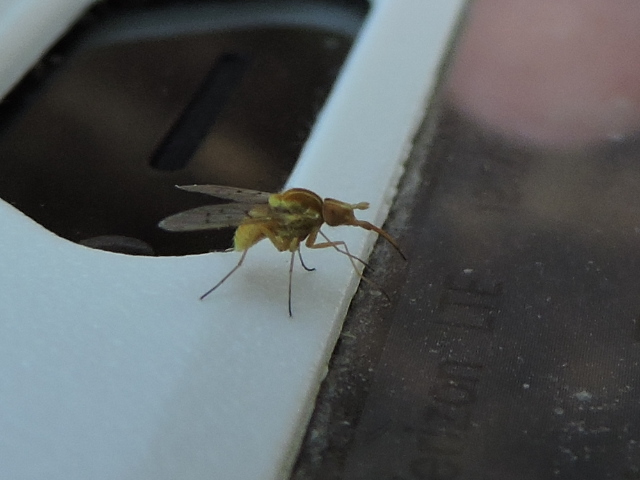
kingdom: Animalia
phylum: Arthropoda
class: Insecta
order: Diptera
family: Bombyliidae
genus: Poecilognathus
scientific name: Poecilognathus unimaculatus
